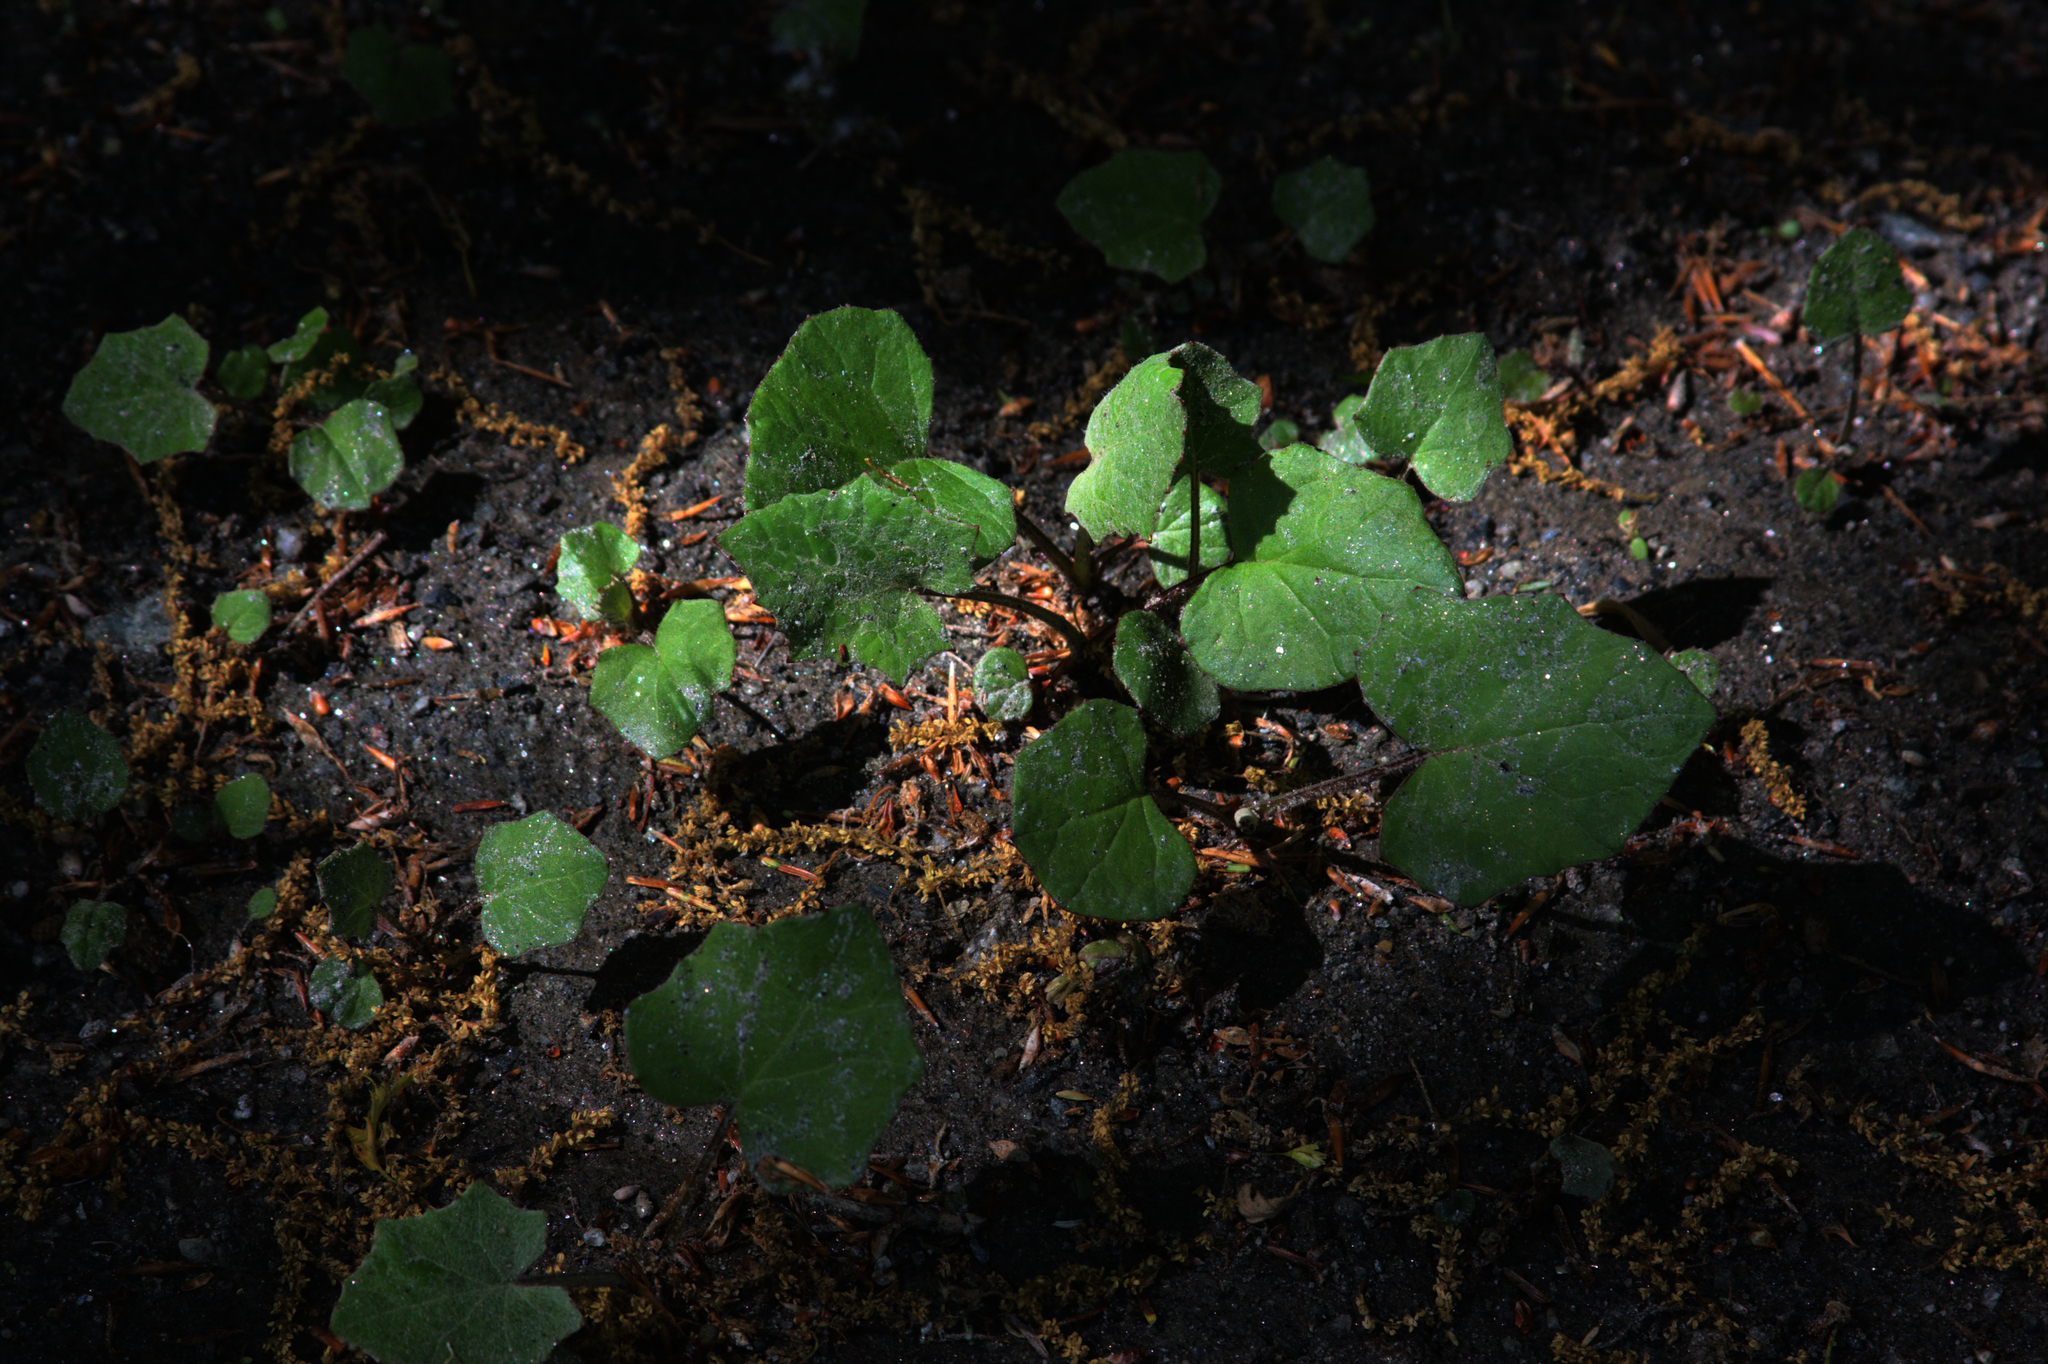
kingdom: Plantae
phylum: Tracheophyta
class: Magnoliopsida
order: Asterales
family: Asteraceae
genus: Tussilago
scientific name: Tussilago farfara
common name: Coltsfoot
